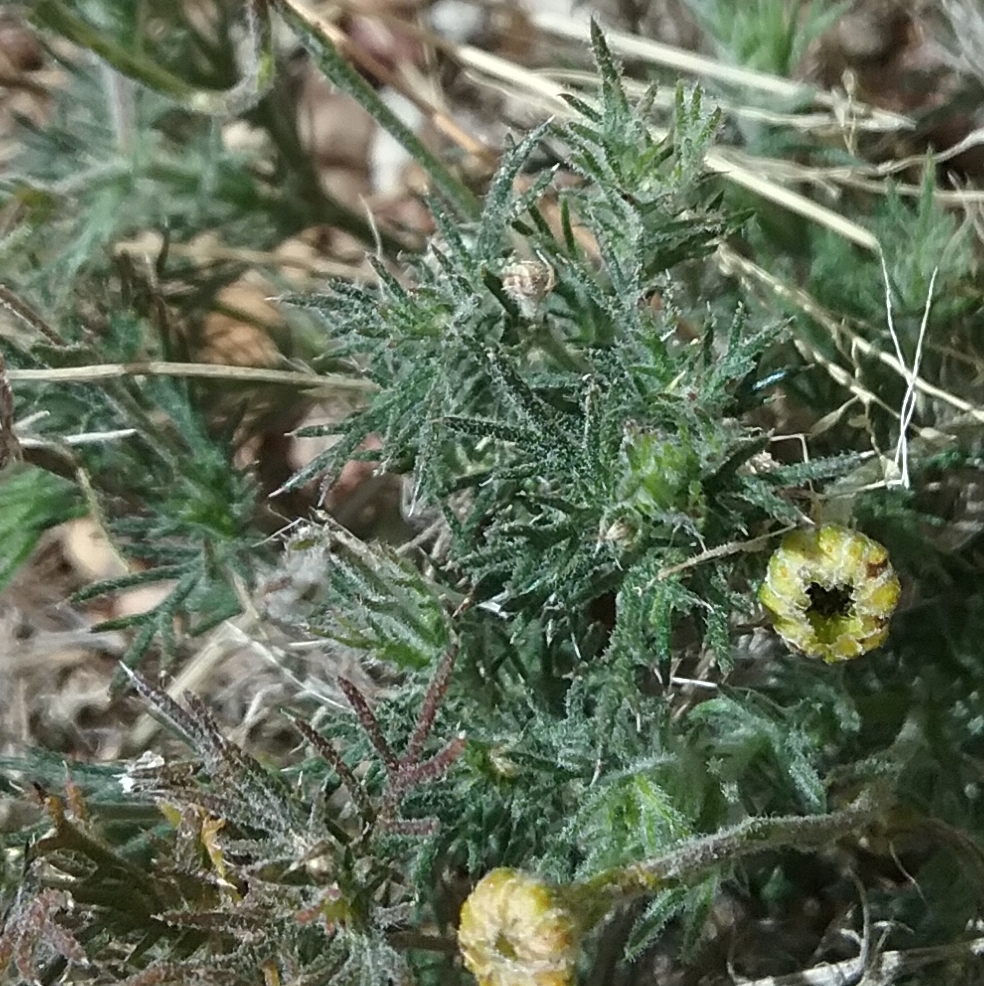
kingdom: Plantae
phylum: Tracheophyta
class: Magnoliopsida
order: Asterales
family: Asteraceae
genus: Thymophylla
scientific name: Thymophylla pentachaeta
